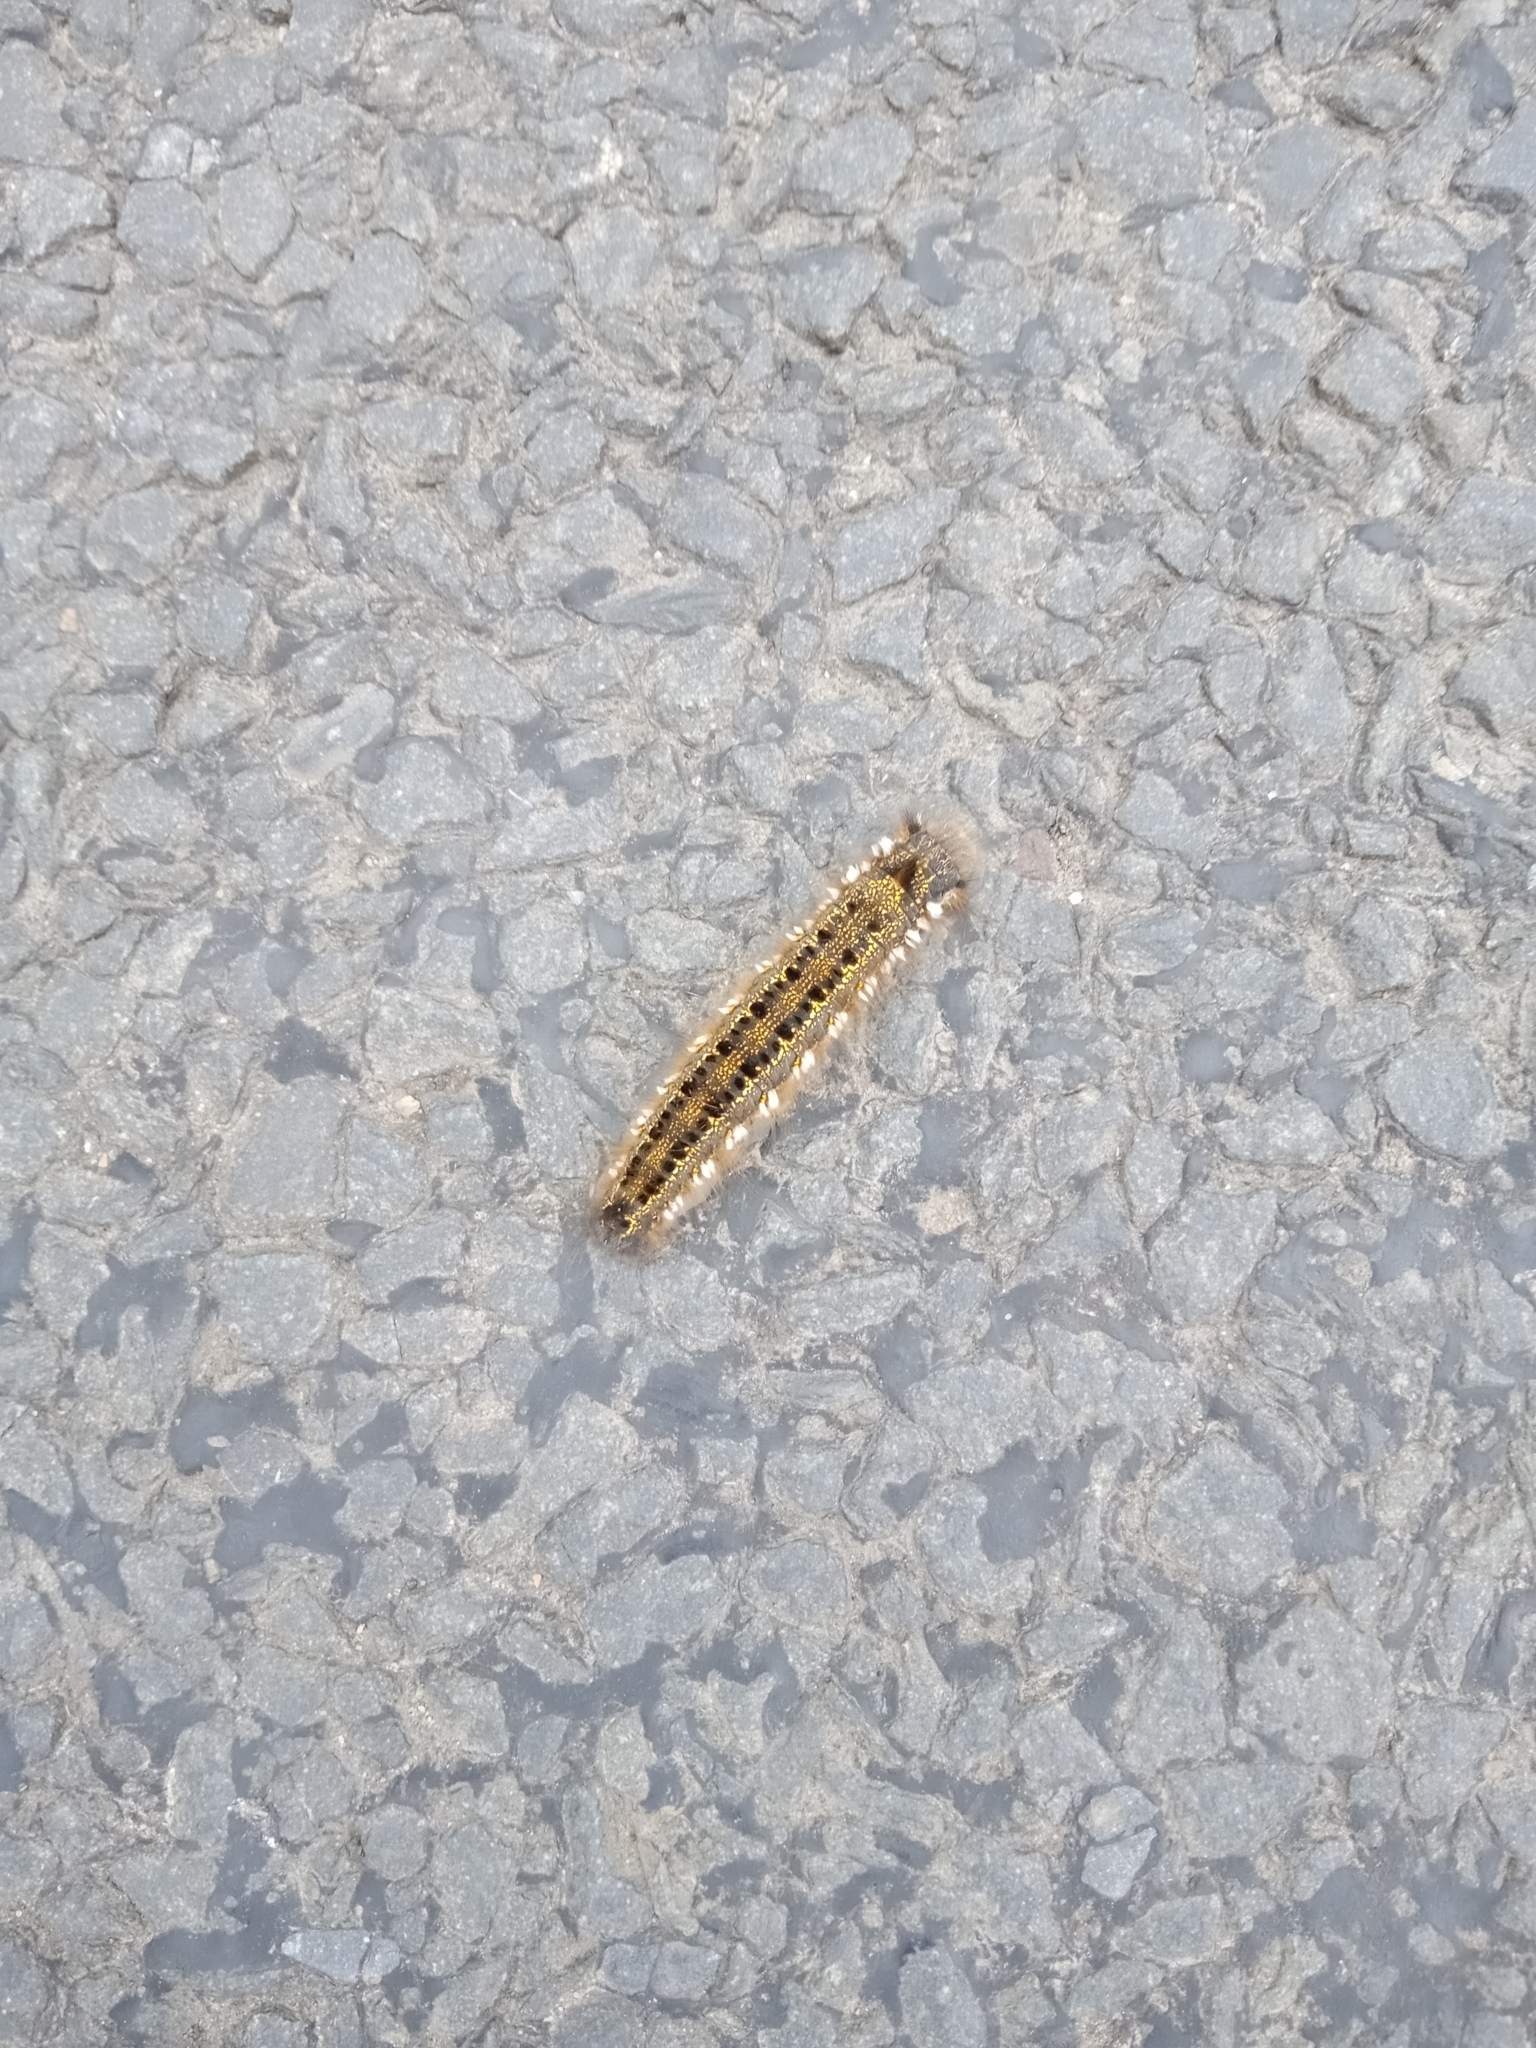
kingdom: Animalia
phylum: Arthropoda
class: Insecta
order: Lepidoptera
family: Lasiocampidae
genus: Euthrix
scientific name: Euthrix potatoria
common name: Drinker
